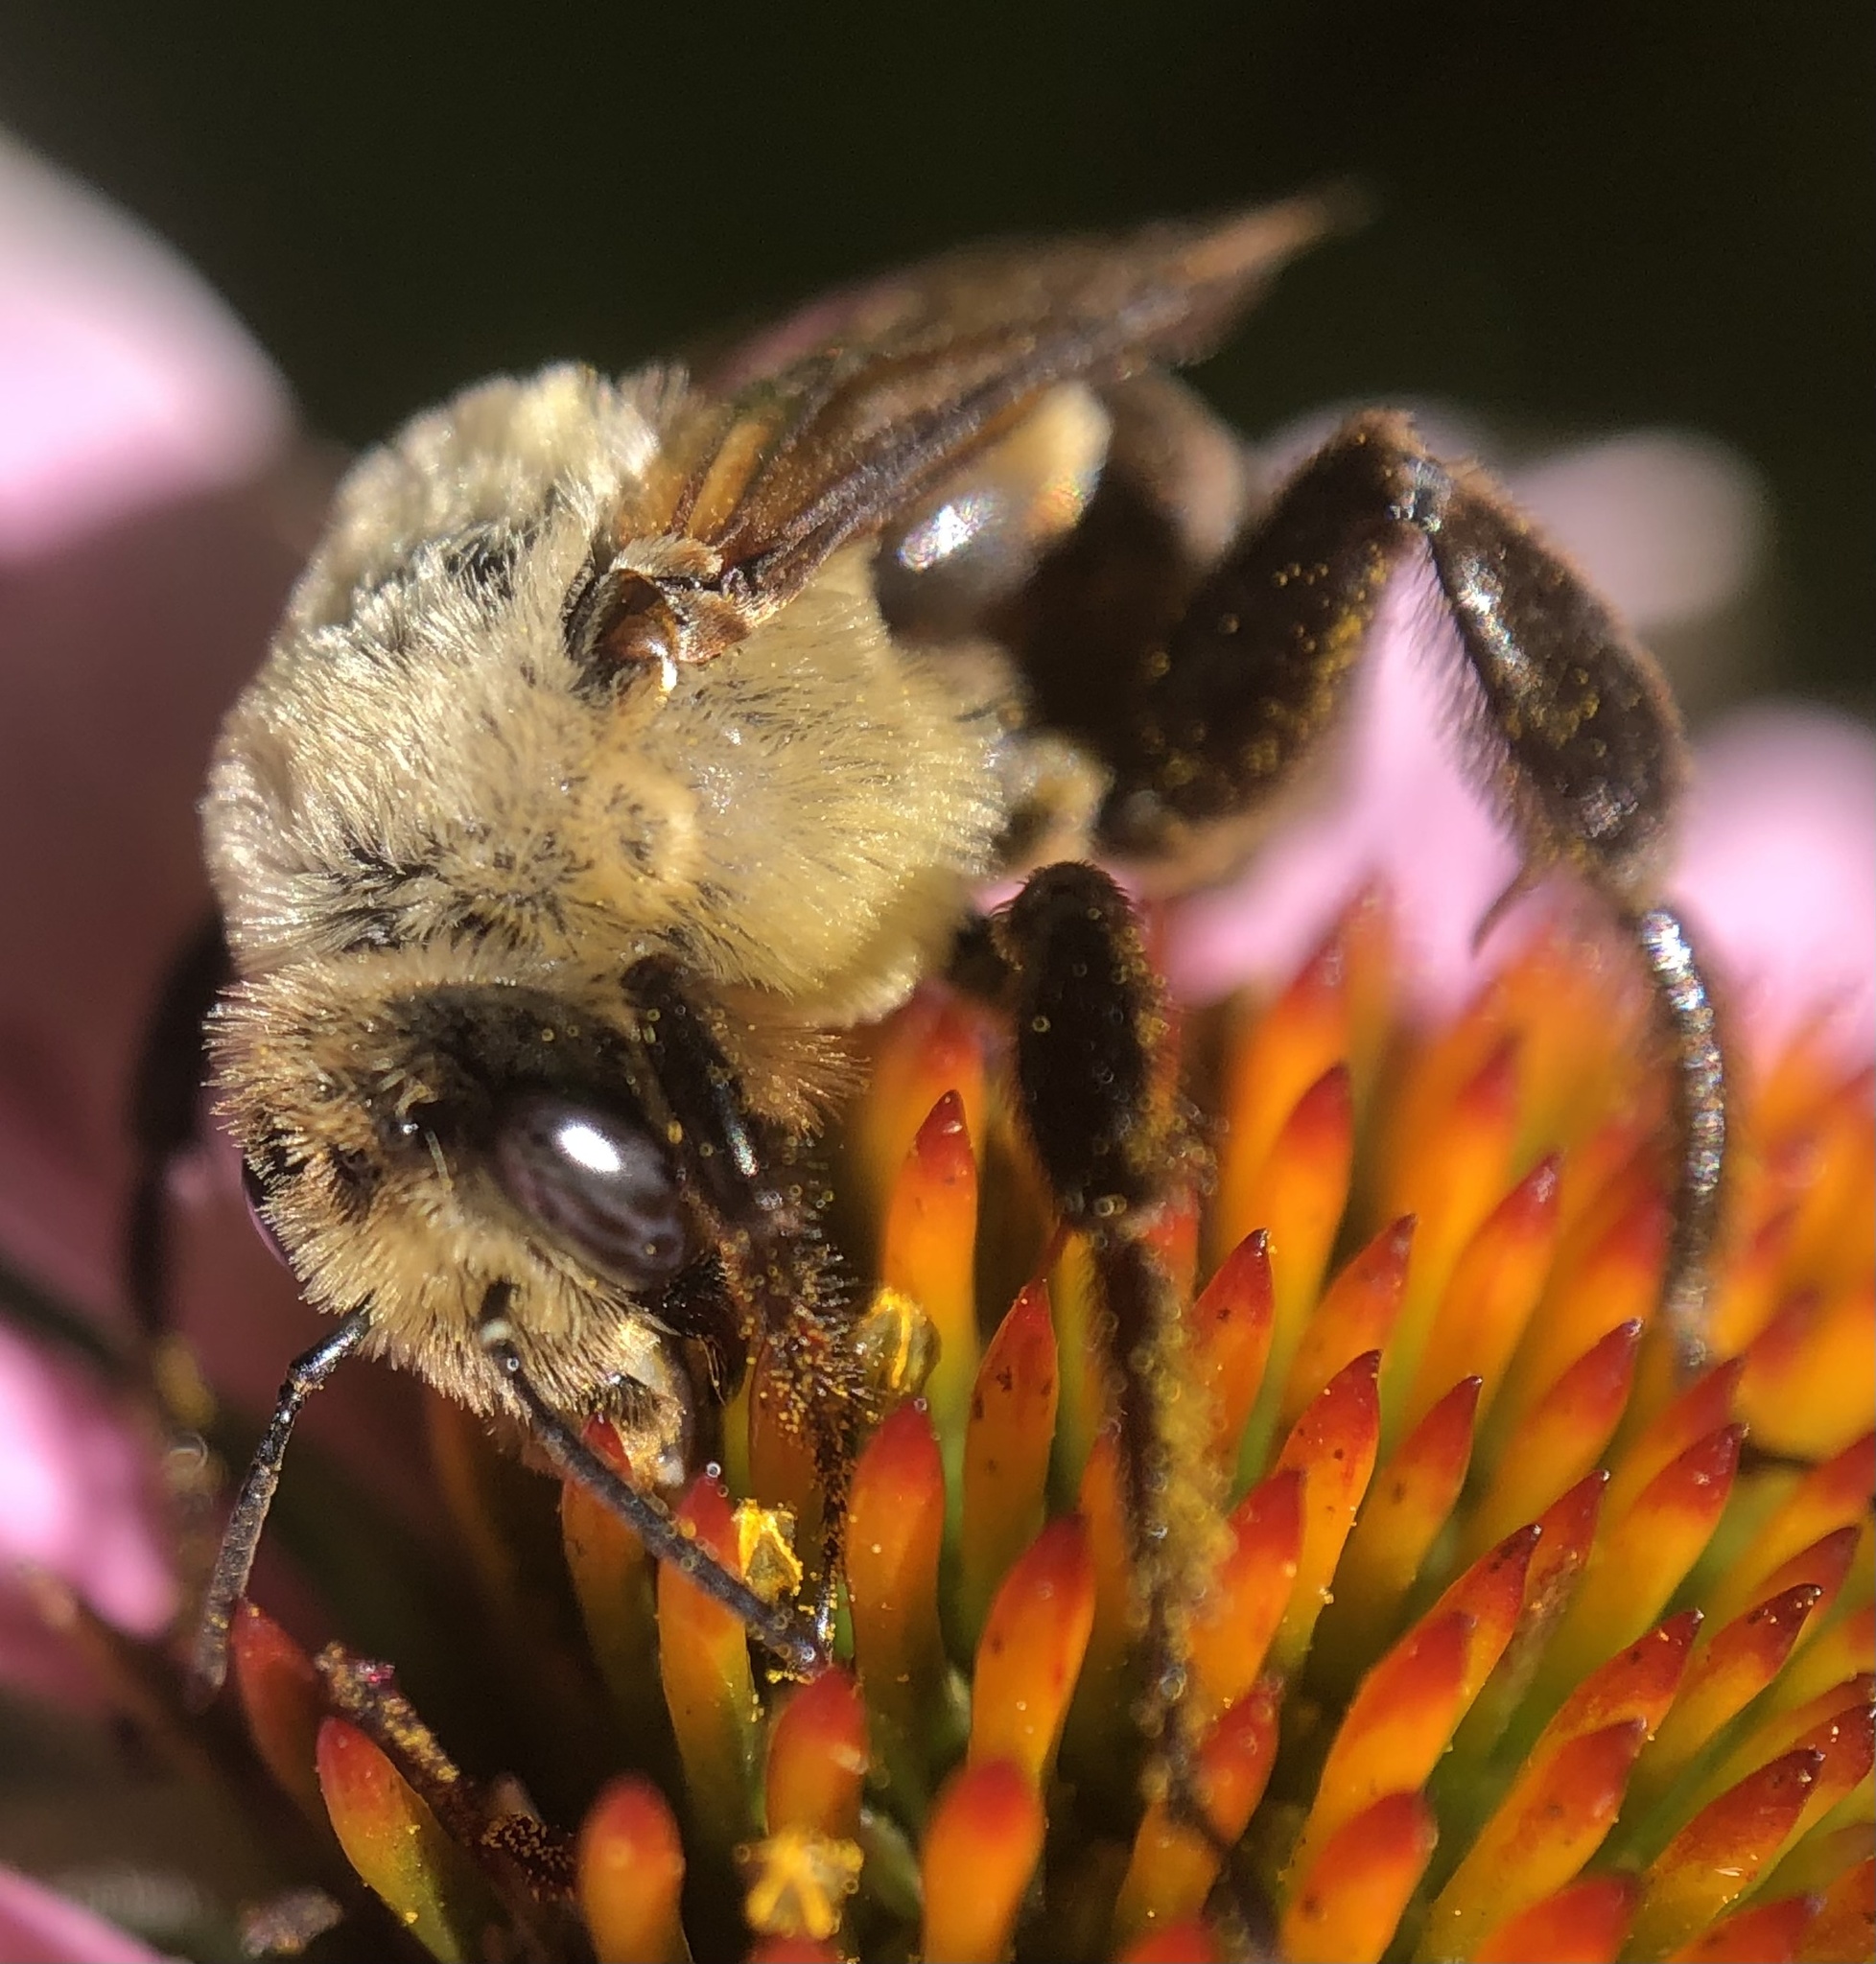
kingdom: Animalia
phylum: Arthropoda
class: Insecta
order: Hymenoptera
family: Apidae
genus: Ptilothrix
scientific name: Ptilothrix bombiformis
